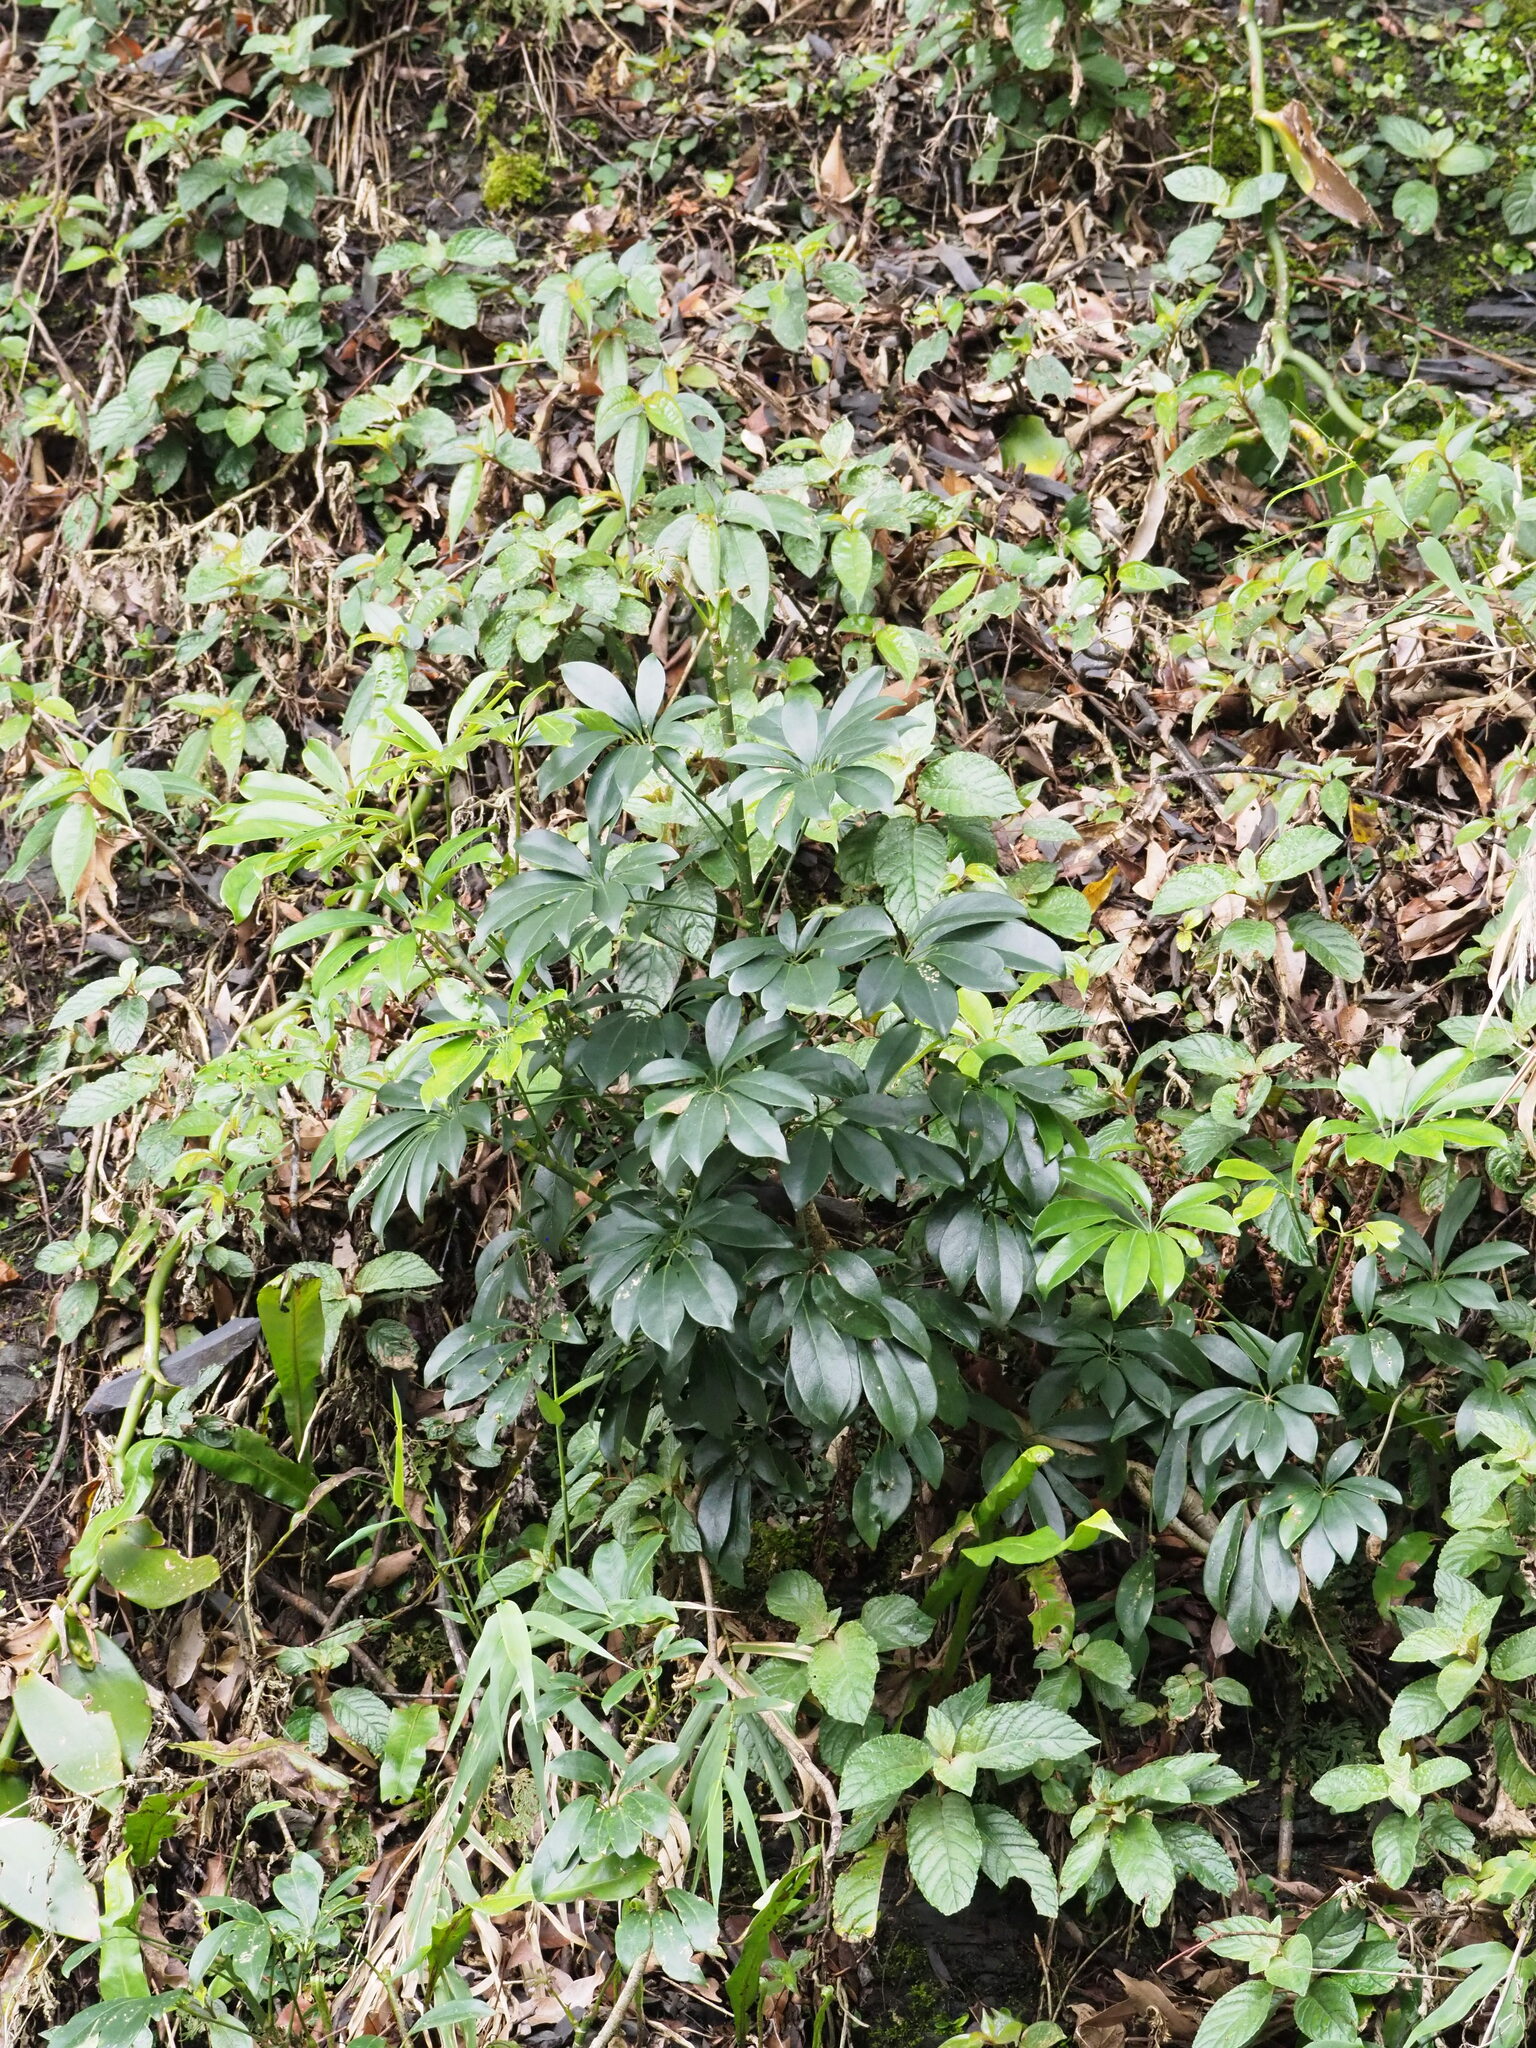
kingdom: Plantae
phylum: Tracheophyta
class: Magnoliopsida
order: Apiales
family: Araliaceae
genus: Heptapleurum
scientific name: Heptapleurum arboricola
